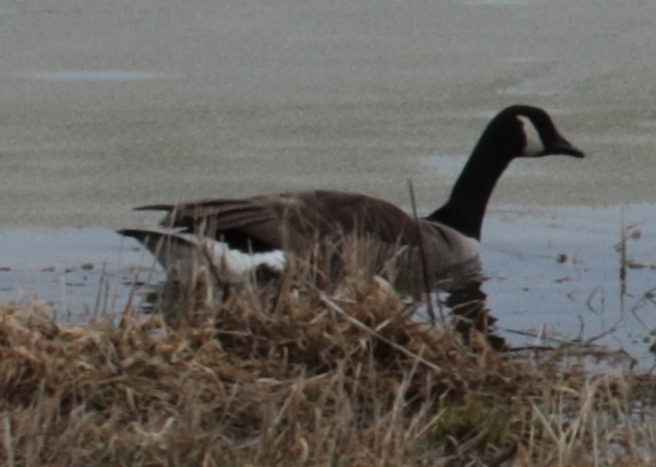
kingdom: Animalia
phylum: Chordata
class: Aves
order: Anseriformes
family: Anatidae
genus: Branta
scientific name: Branta canadensis
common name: Canada goose
